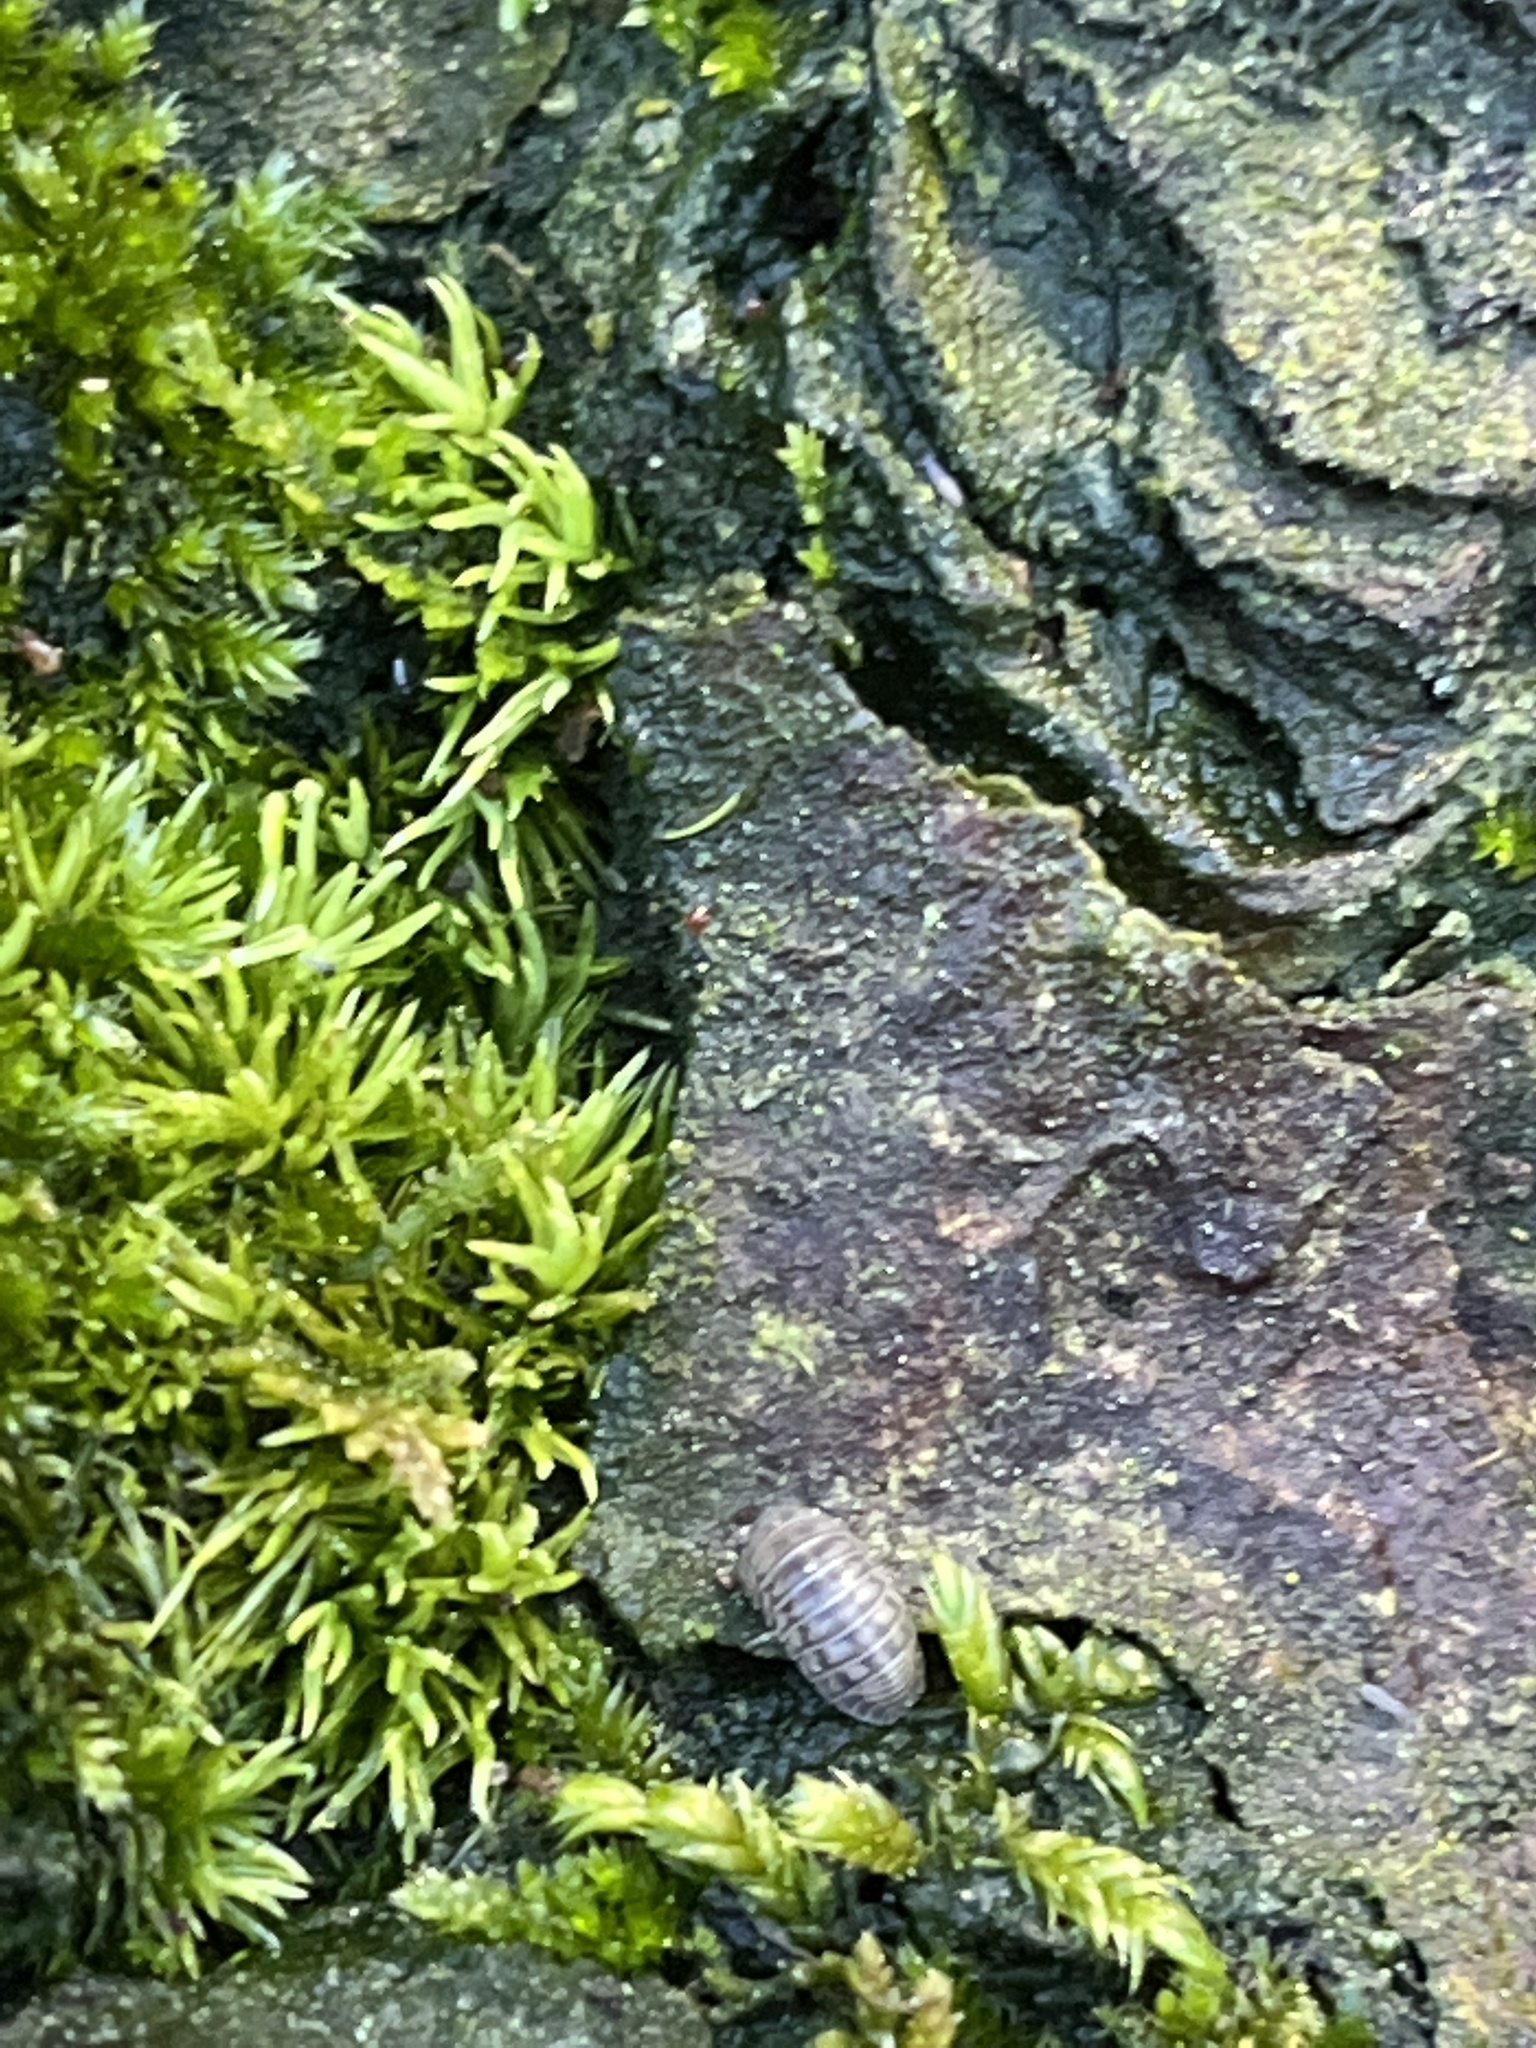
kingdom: Animalia
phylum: Arthropoda
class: Malacostraca
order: Isopoda
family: Armadillidiidae
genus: Armadillidium
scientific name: Armadillidium nasatum
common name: Isopod
